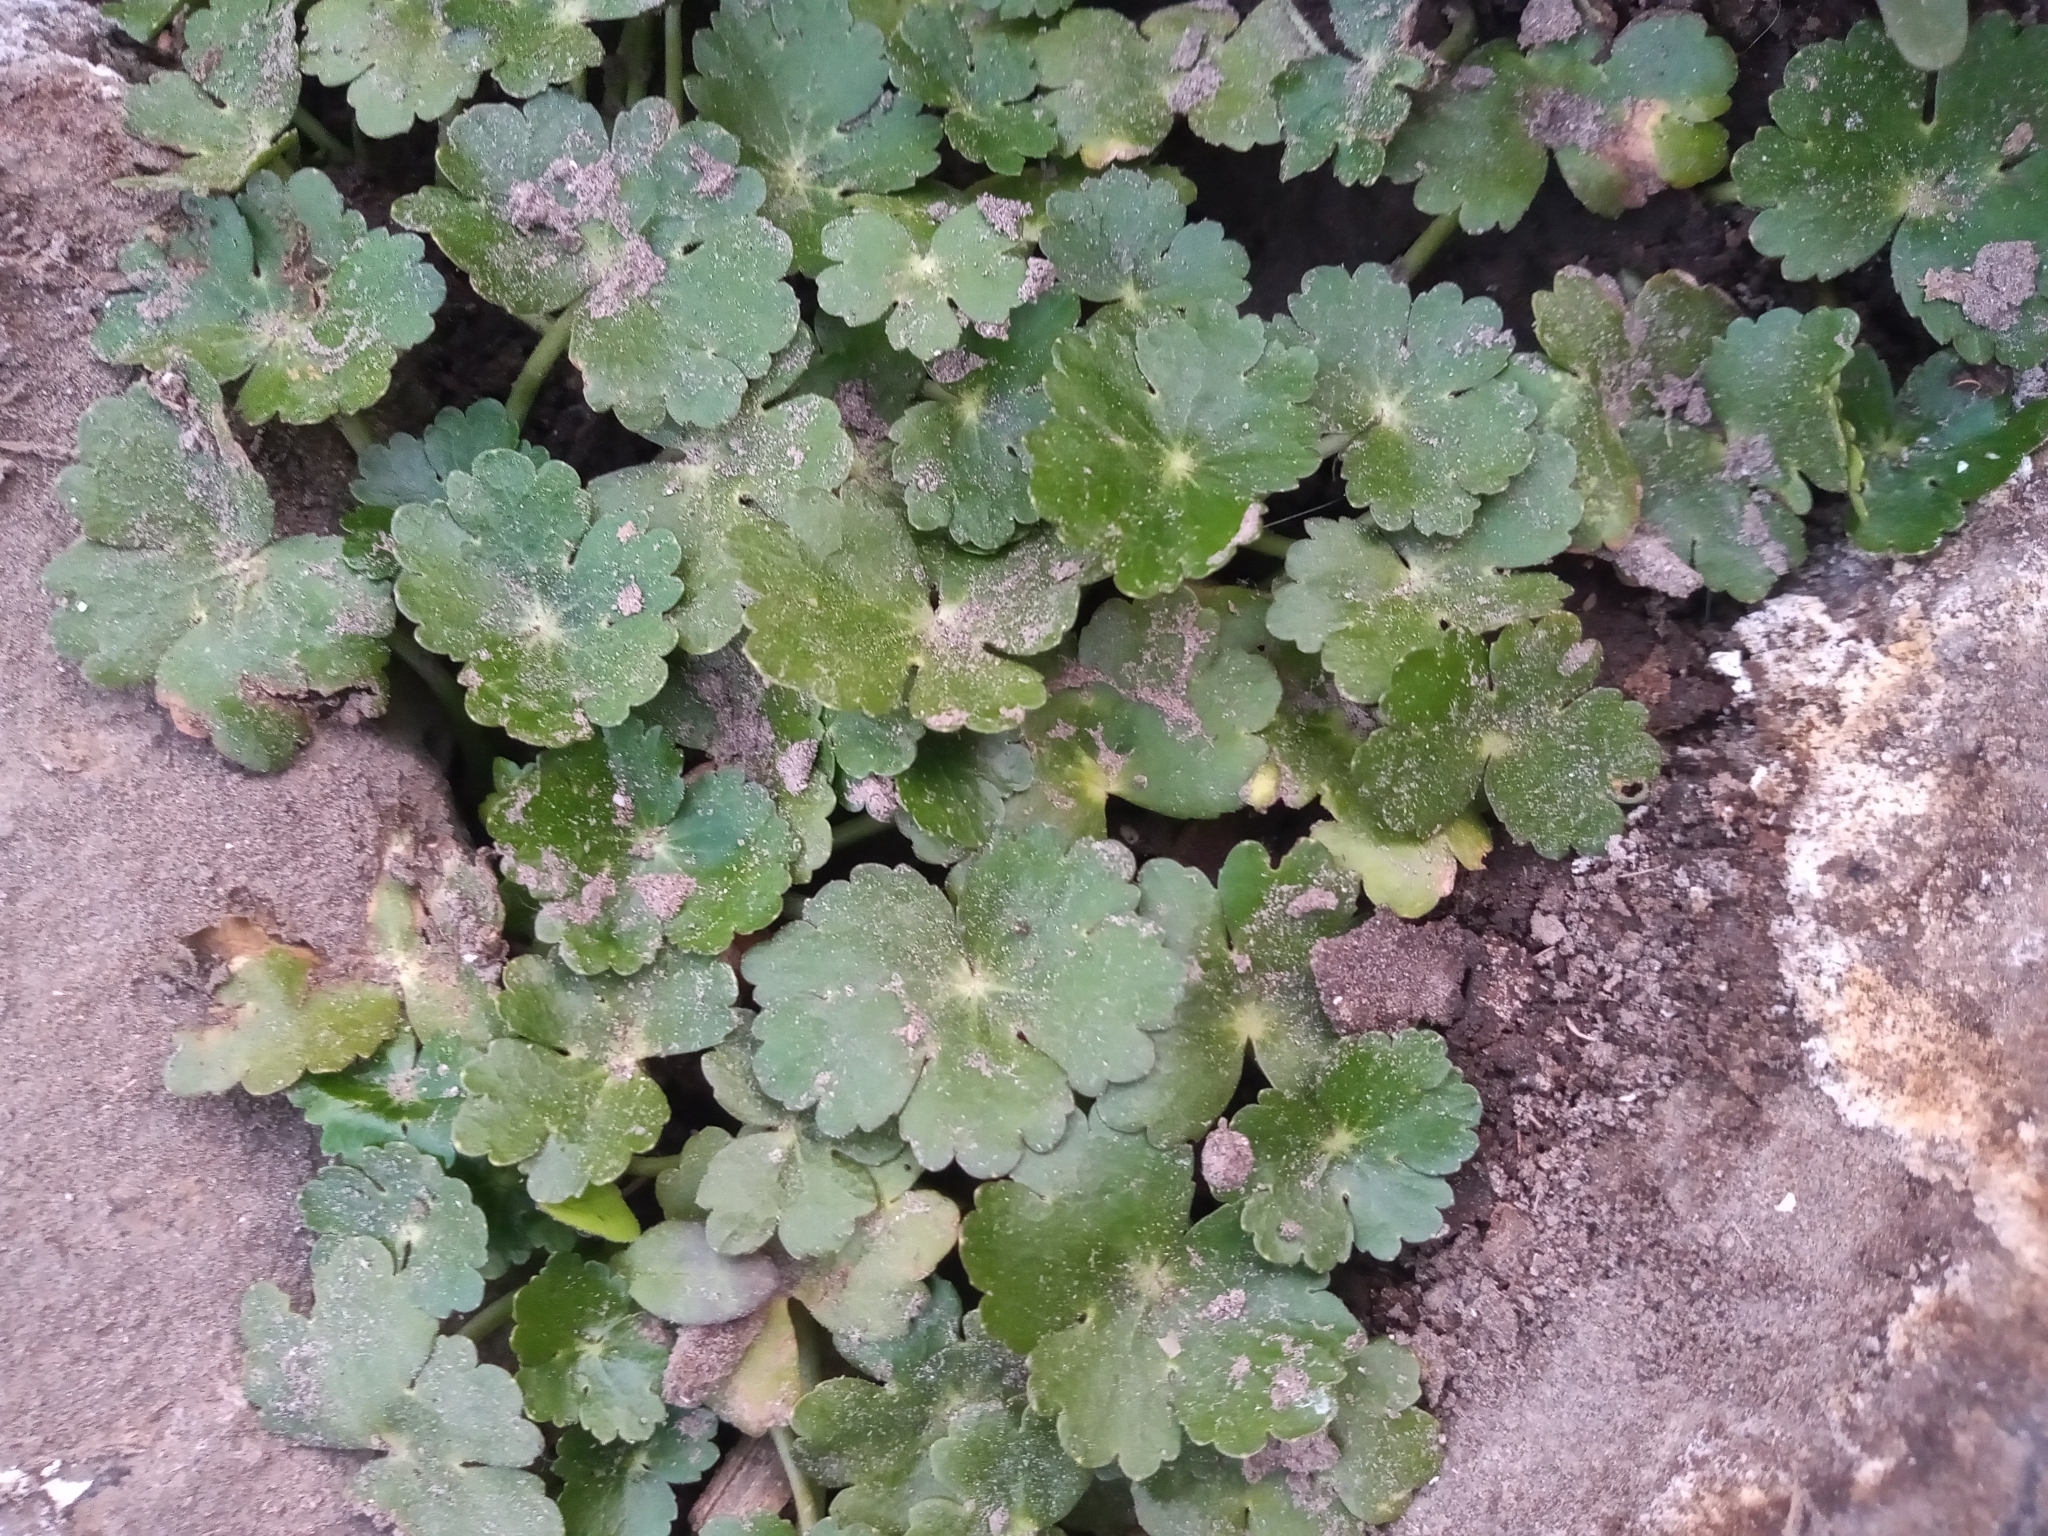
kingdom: Plantae
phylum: Tracheophyta
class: Magnoliopsida
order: Apiales
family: Araliaceae
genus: Hydrocotyle
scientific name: Hydrocotyle ranunculoides
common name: Floating pennywort
